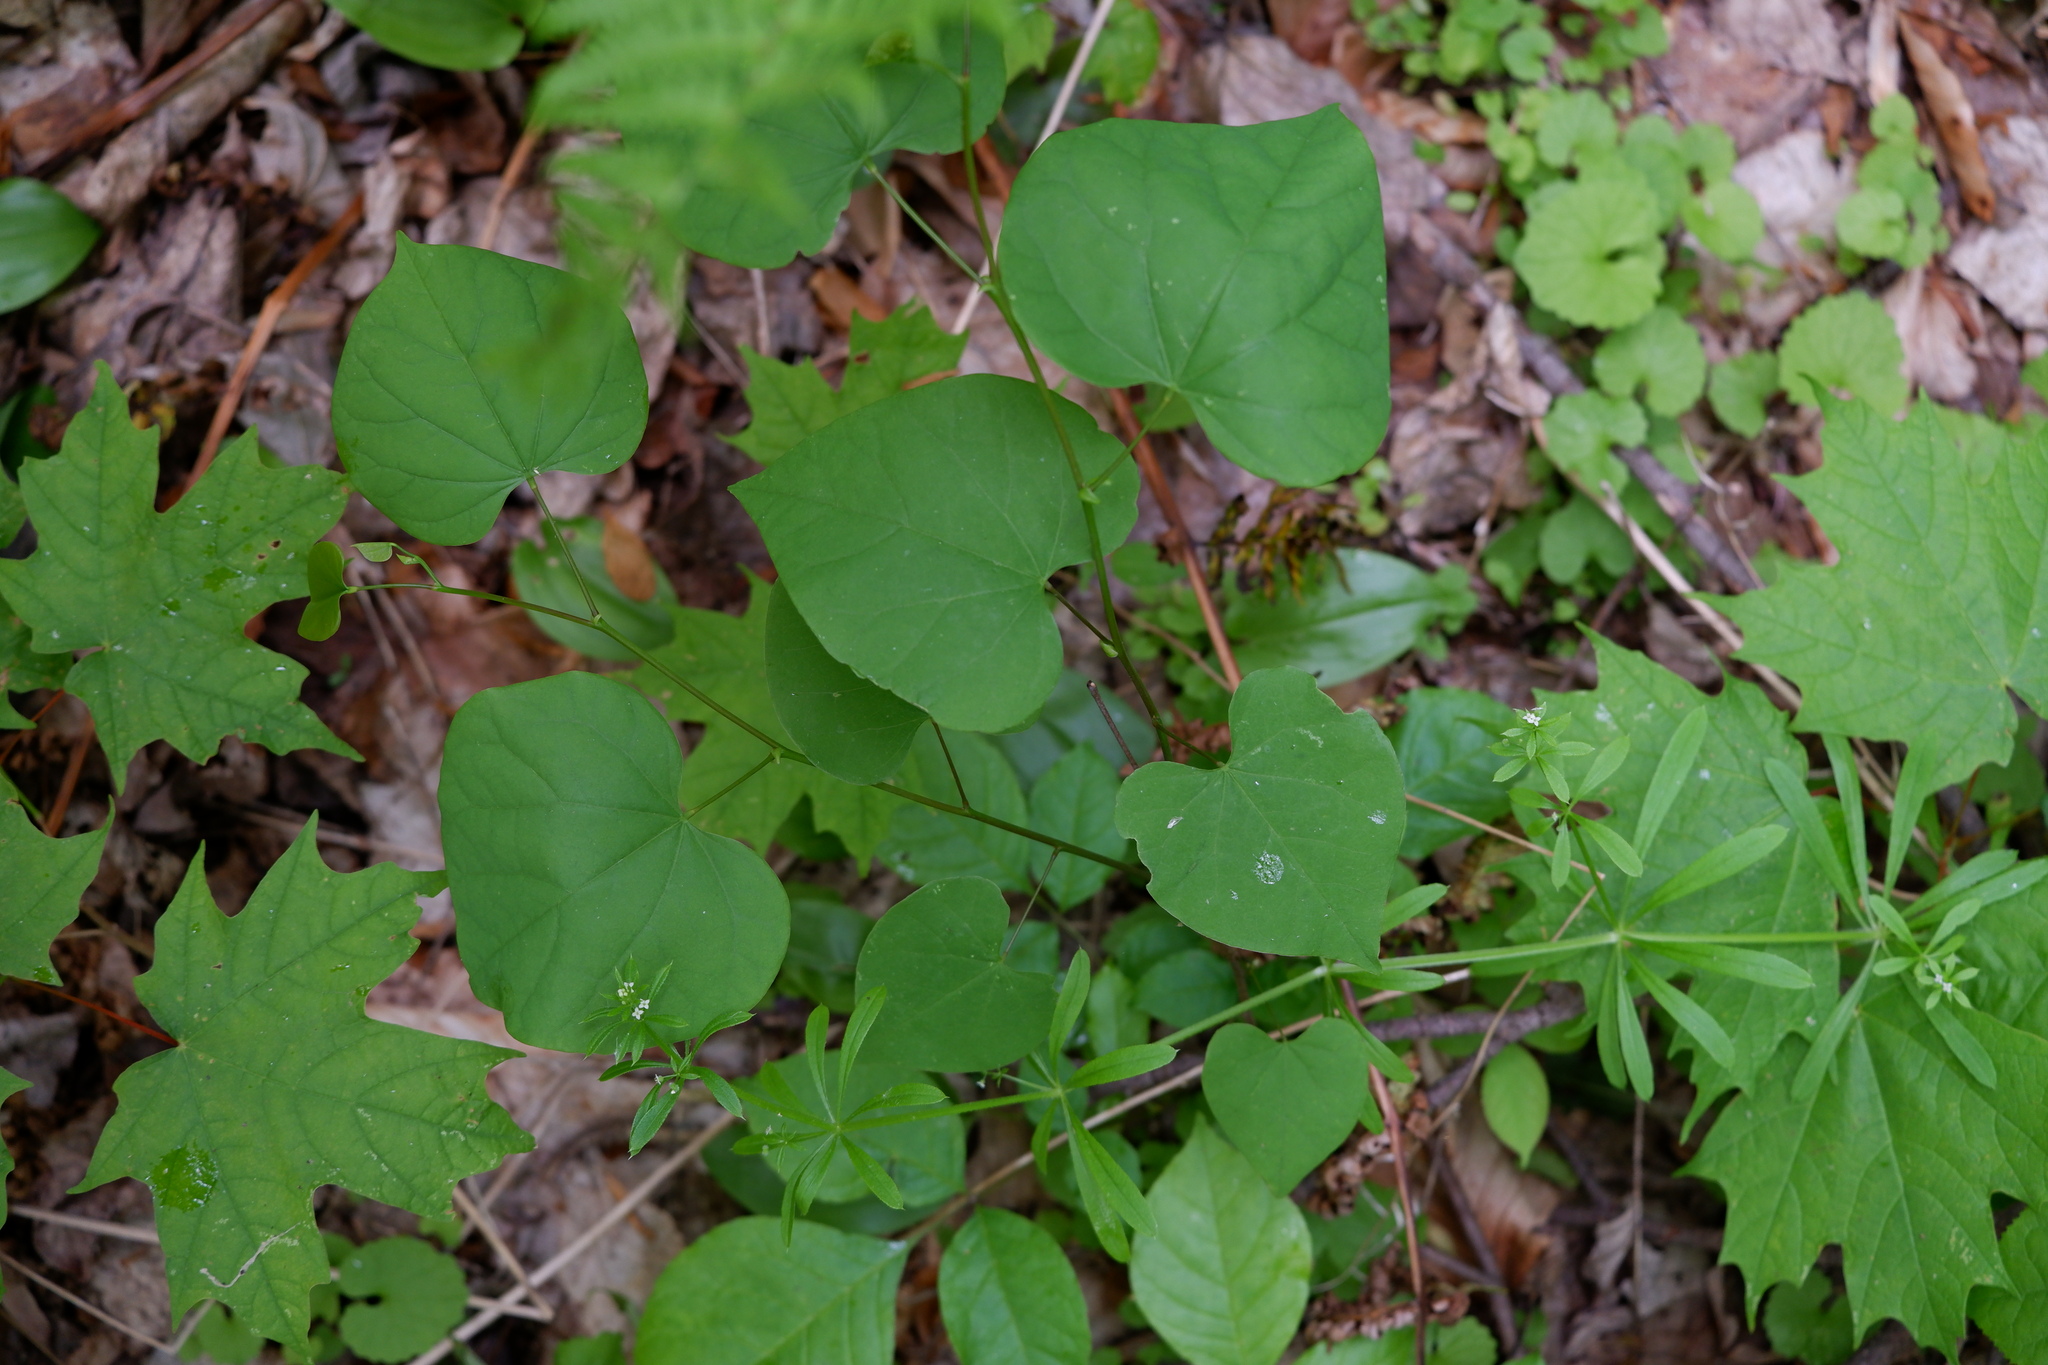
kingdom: Plantae
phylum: Tracheophyta
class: Magnoliopsida
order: Fabales
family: Fabaceae
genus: Cercis
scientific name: Cercis canadensis
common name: Eastern redbud
